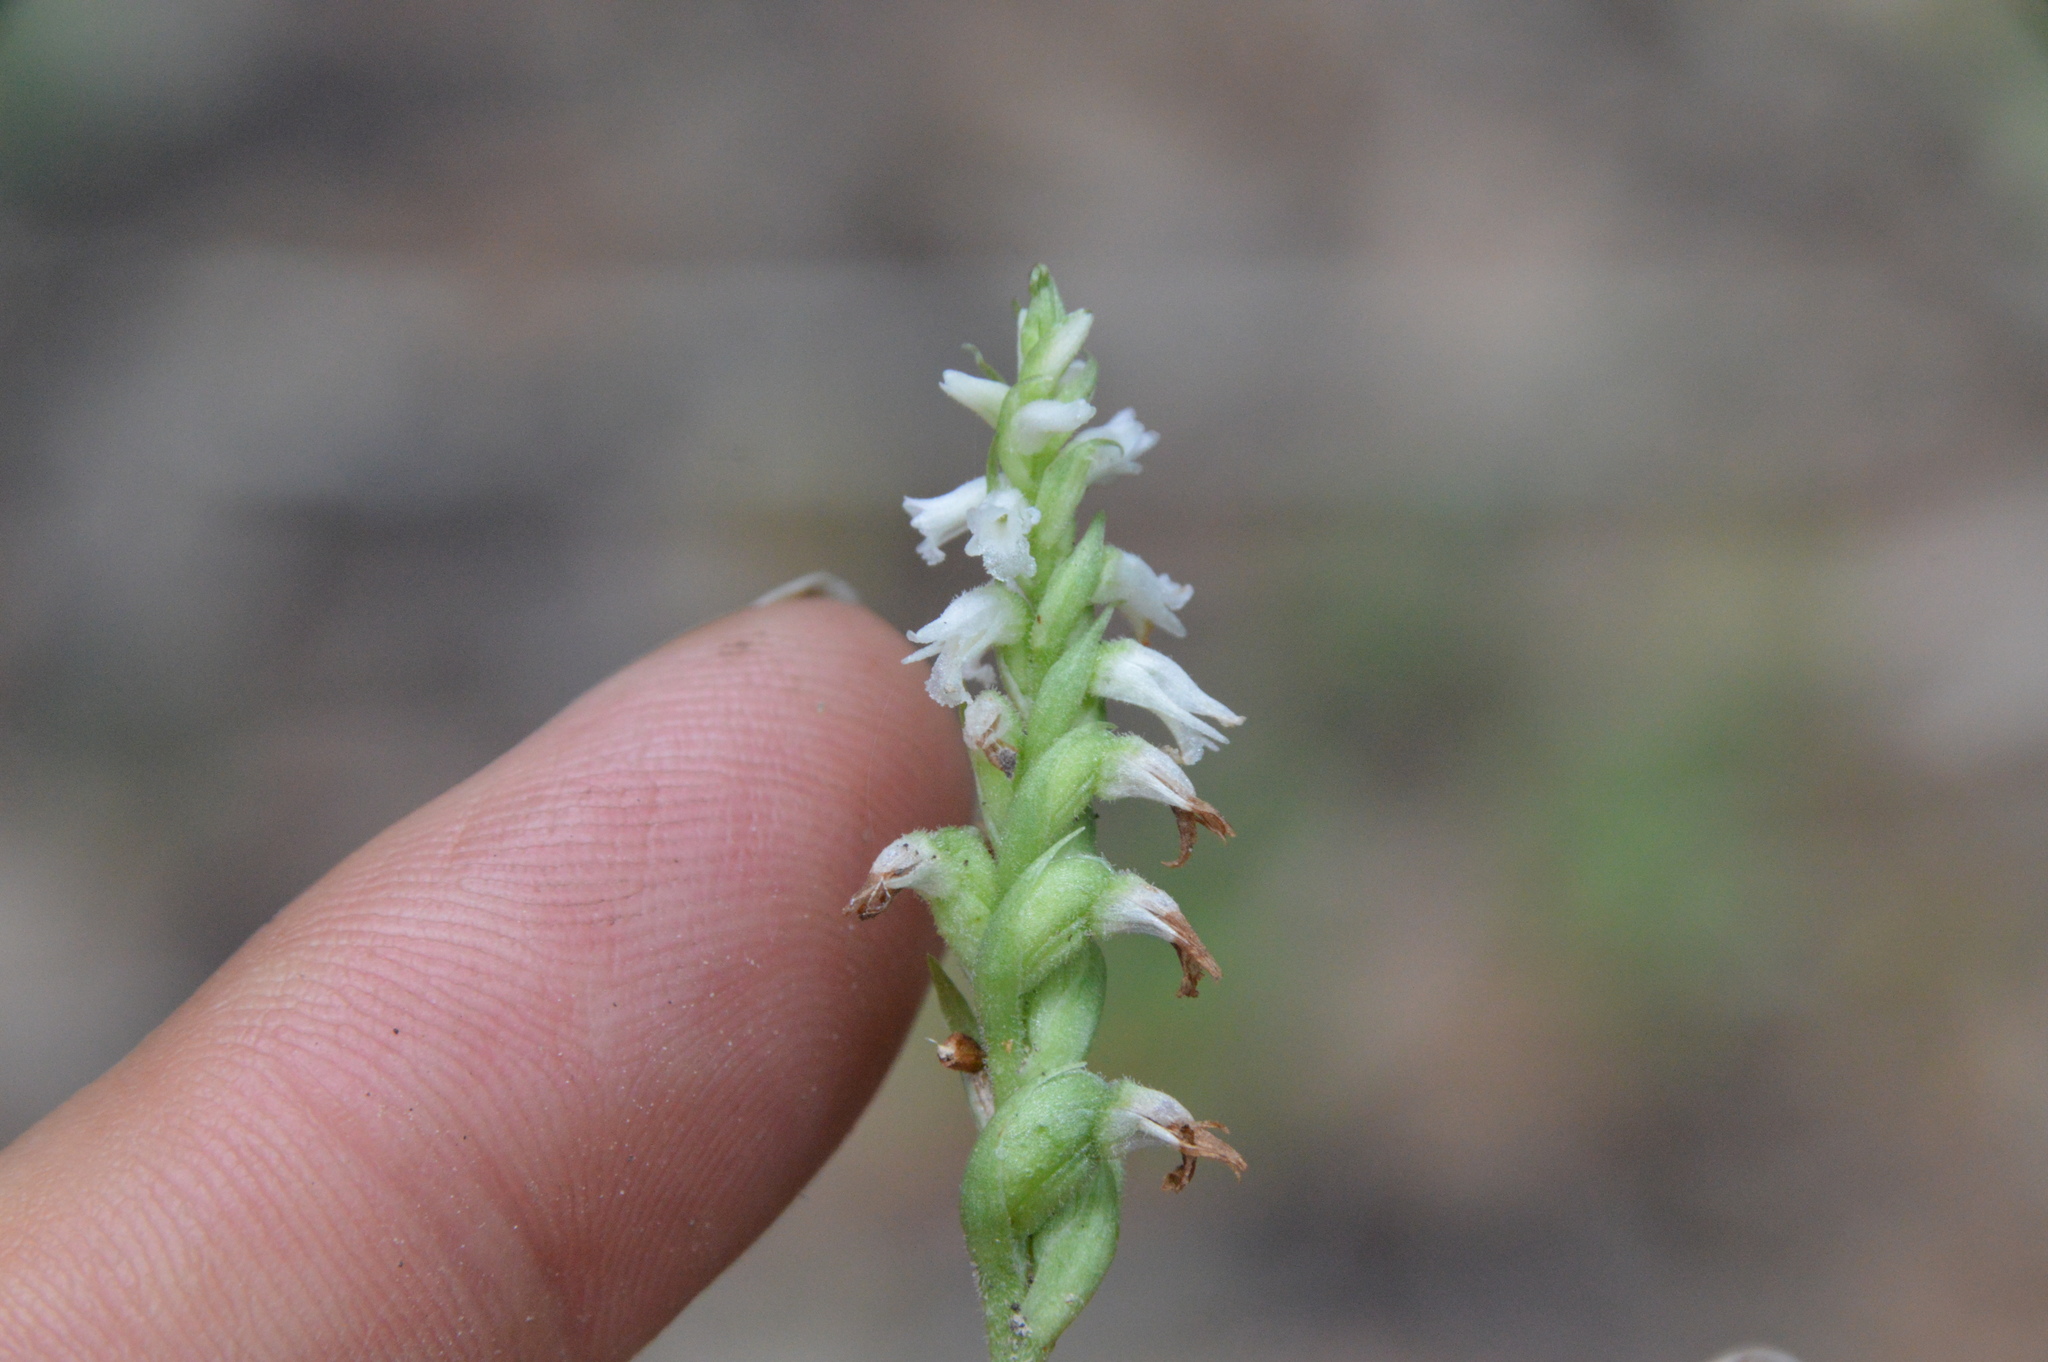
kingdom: Plantae
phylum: Tracheophyta
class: Liliopsida
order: Asparagales
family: Orchidaceae
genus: Spiranthes
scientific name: Spiranthes ovalis
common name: October ladies'-tresses
